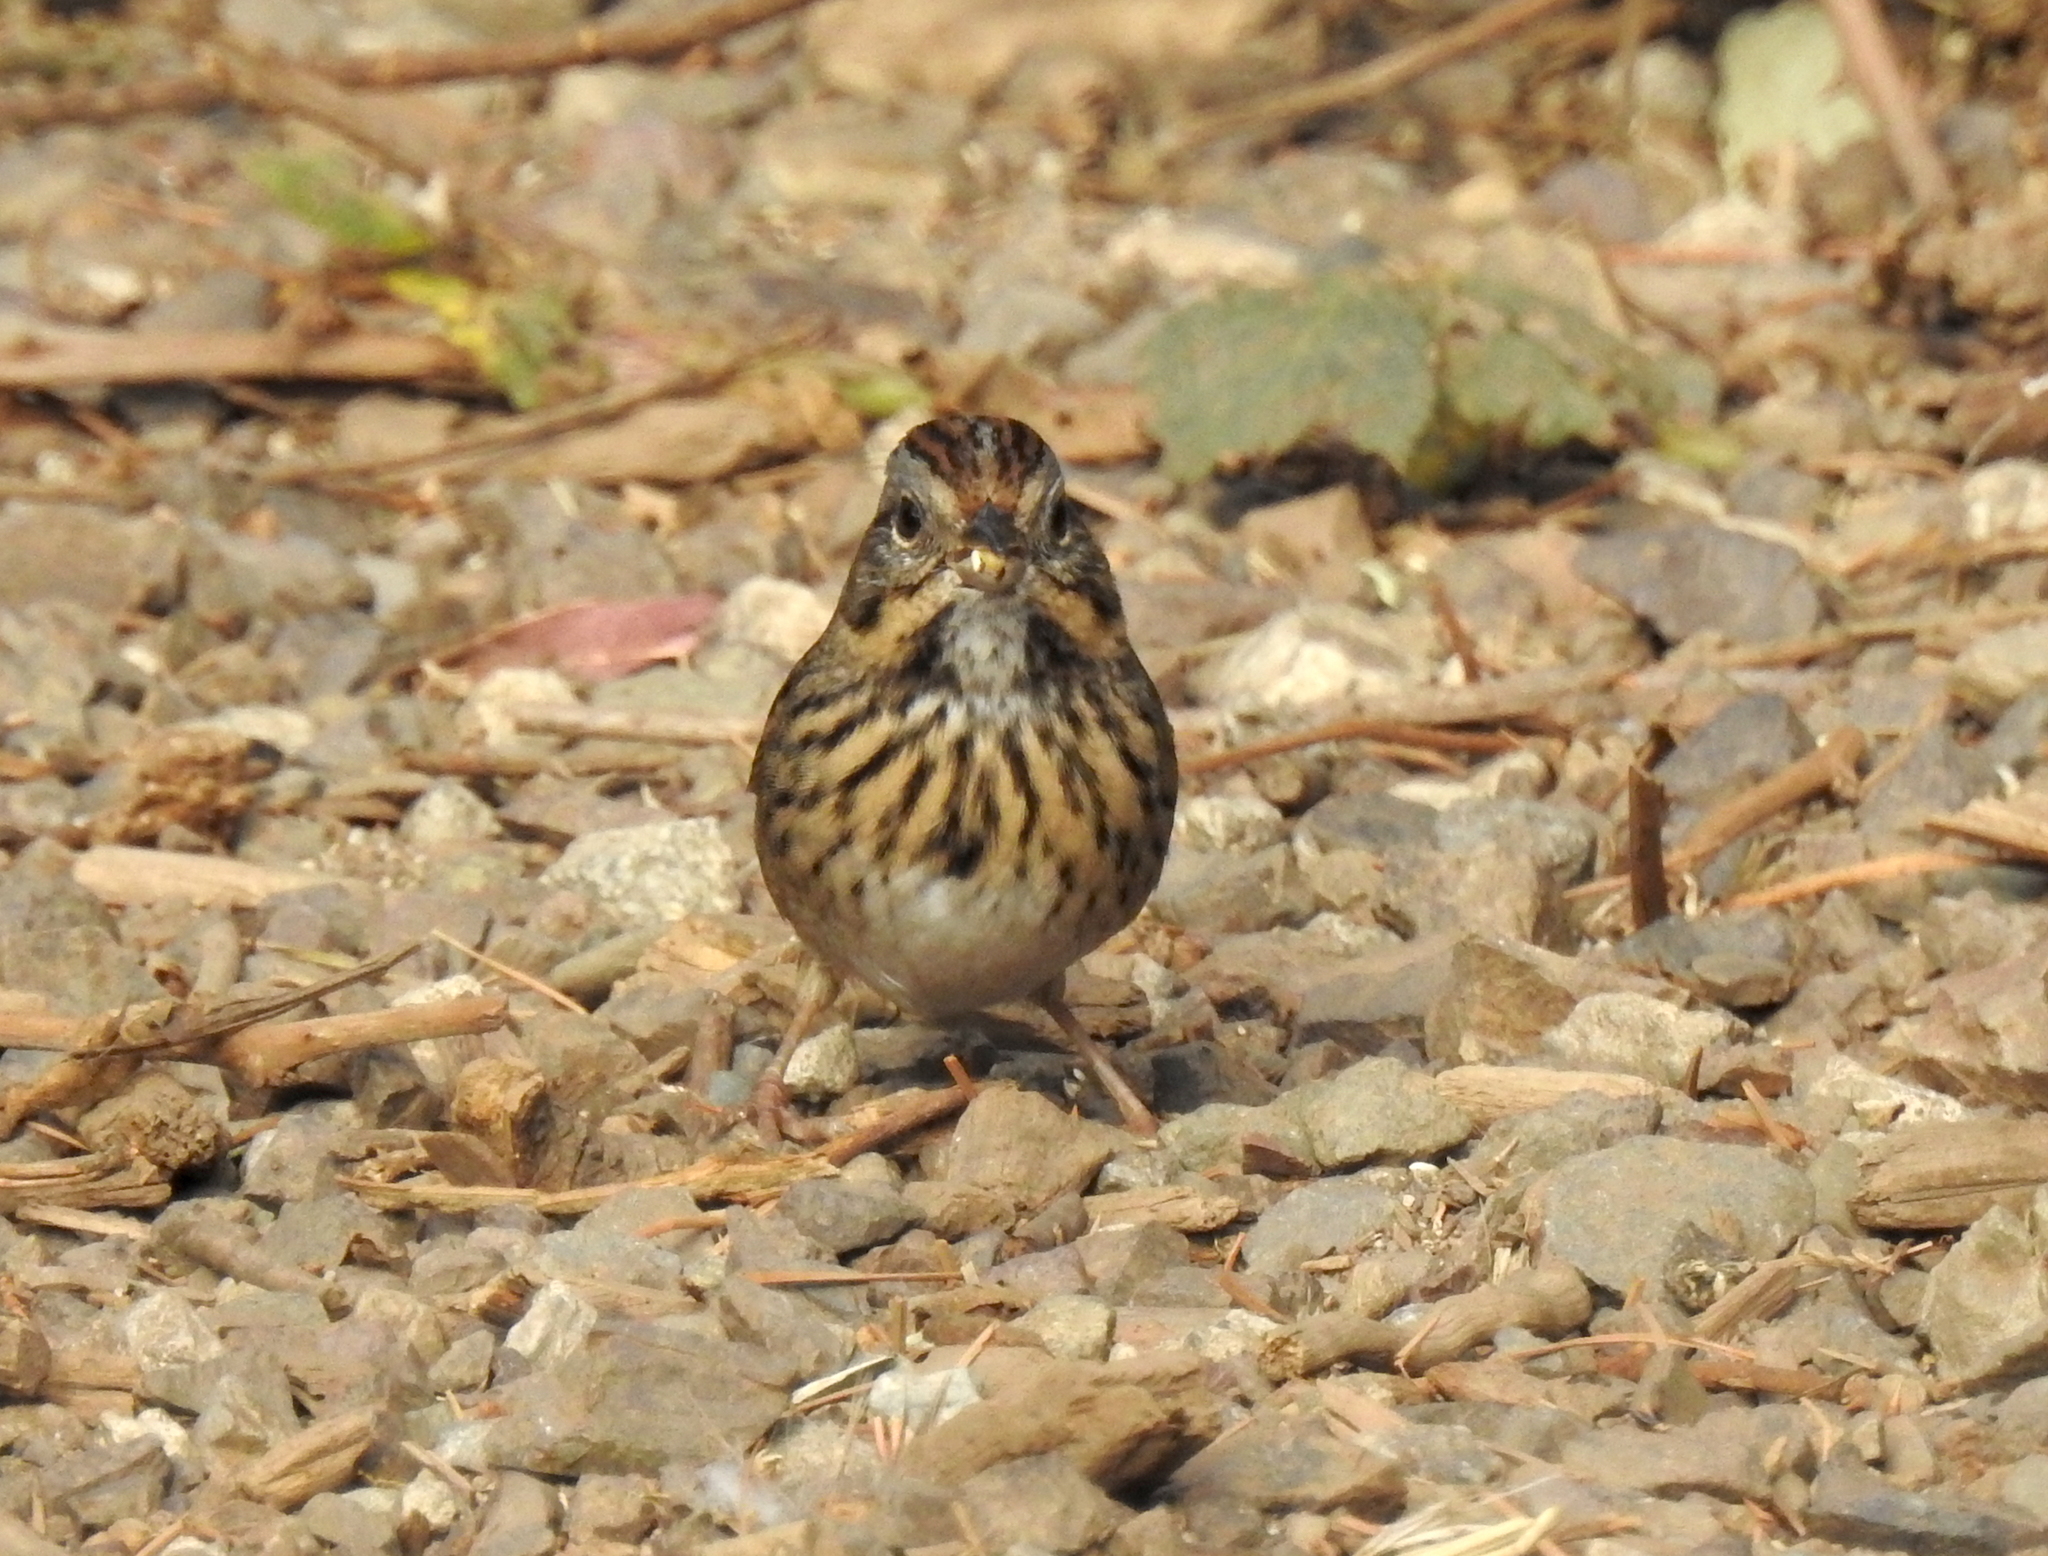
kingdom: Animalia
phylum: Chordata
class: Aves
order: Passeriformes
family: Passerellidae
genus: Melospiza
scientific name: Melospiza lincolnii
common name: Lincoln's sparrow
